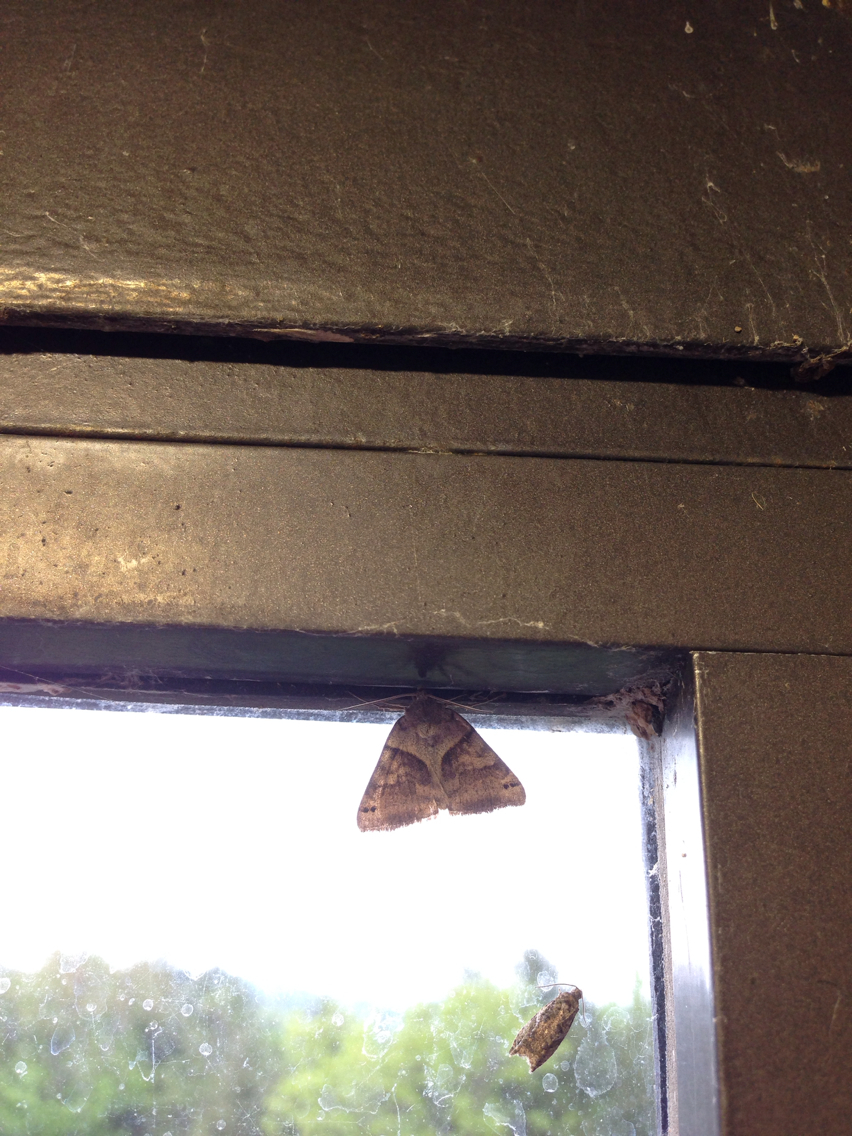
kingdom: Animalia
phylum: Arthropoda
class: Insecta
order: Lepidoptera
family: Erebidae
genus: Caenurgina
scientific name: Caenurgina crassiuscula
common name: Double-barred
